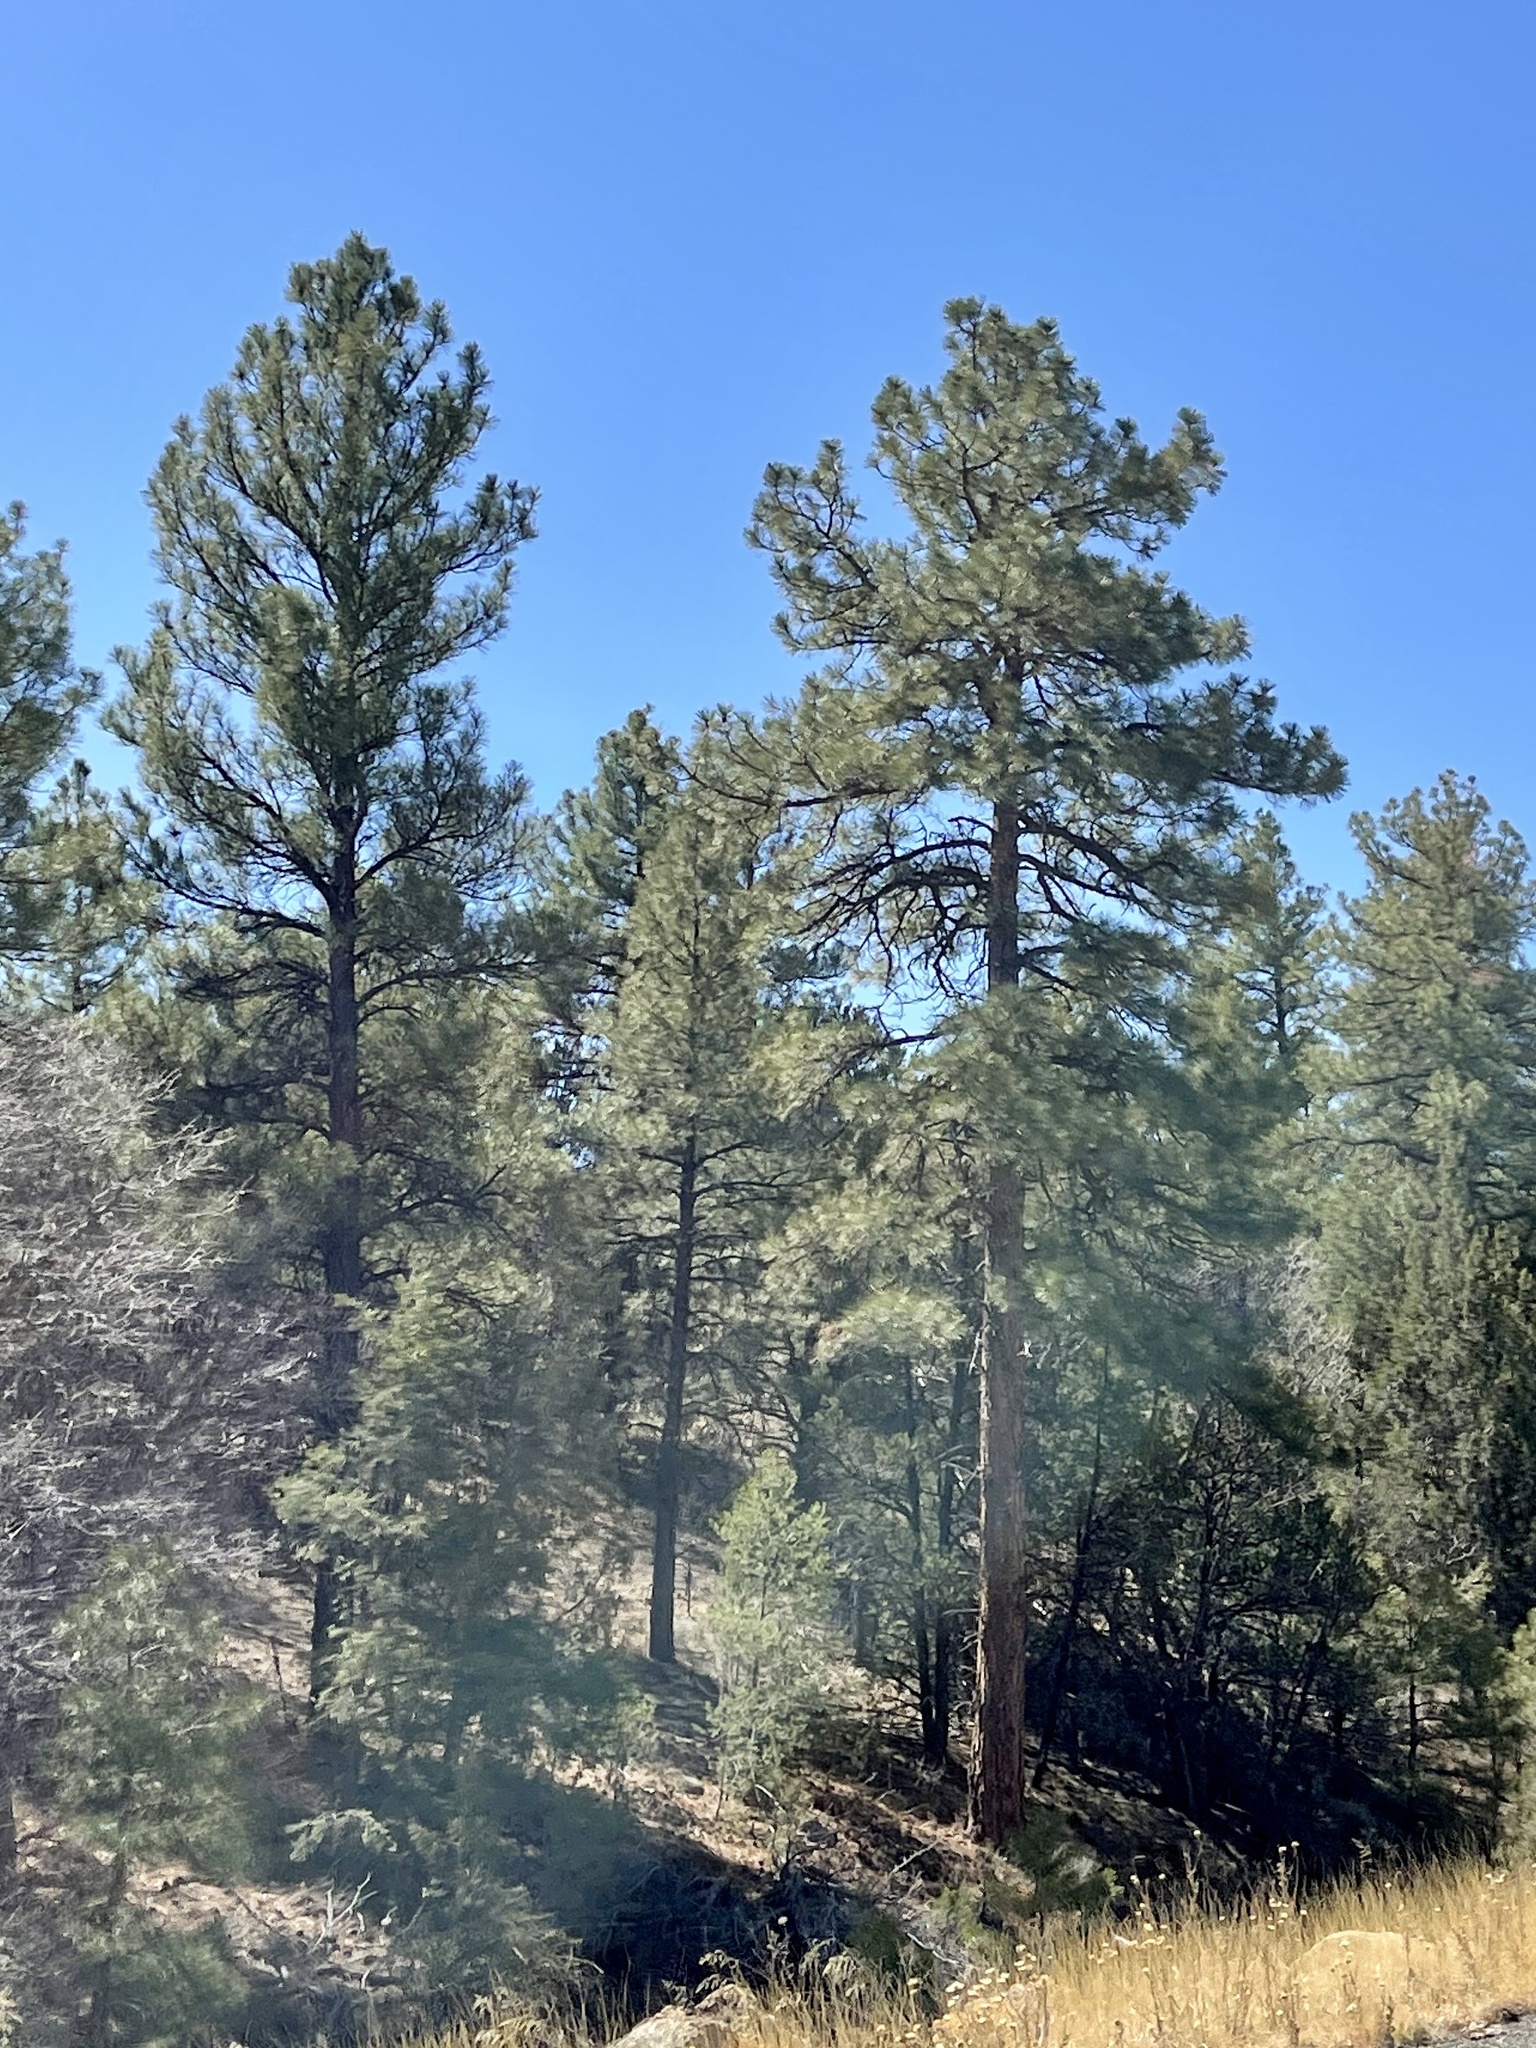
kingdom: Plantae
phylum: Tracheophyta
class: Pinopsida
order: Pinales
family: Pinaceae
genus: Pinus
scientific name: Pinus ponderosa
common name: Western yellow-pine
